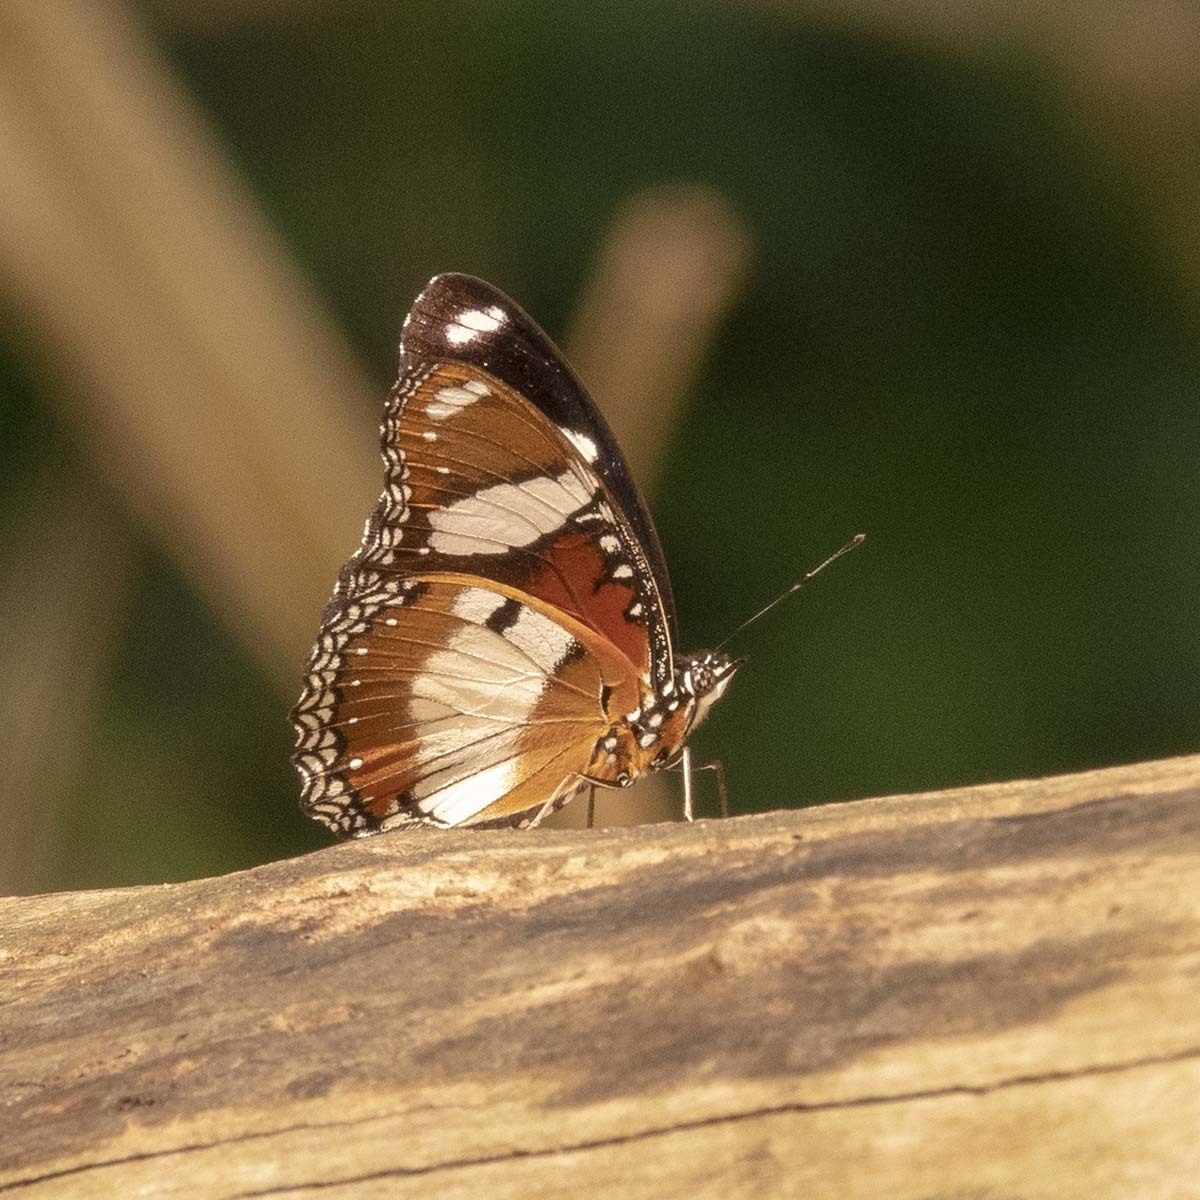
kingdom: Animalia
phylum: Arthropoda
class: Insecta
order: Lepidoptera
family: Nymphalidae
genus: Hypolimnas
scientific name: Hypolimnas misippus
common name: False plain tiger
